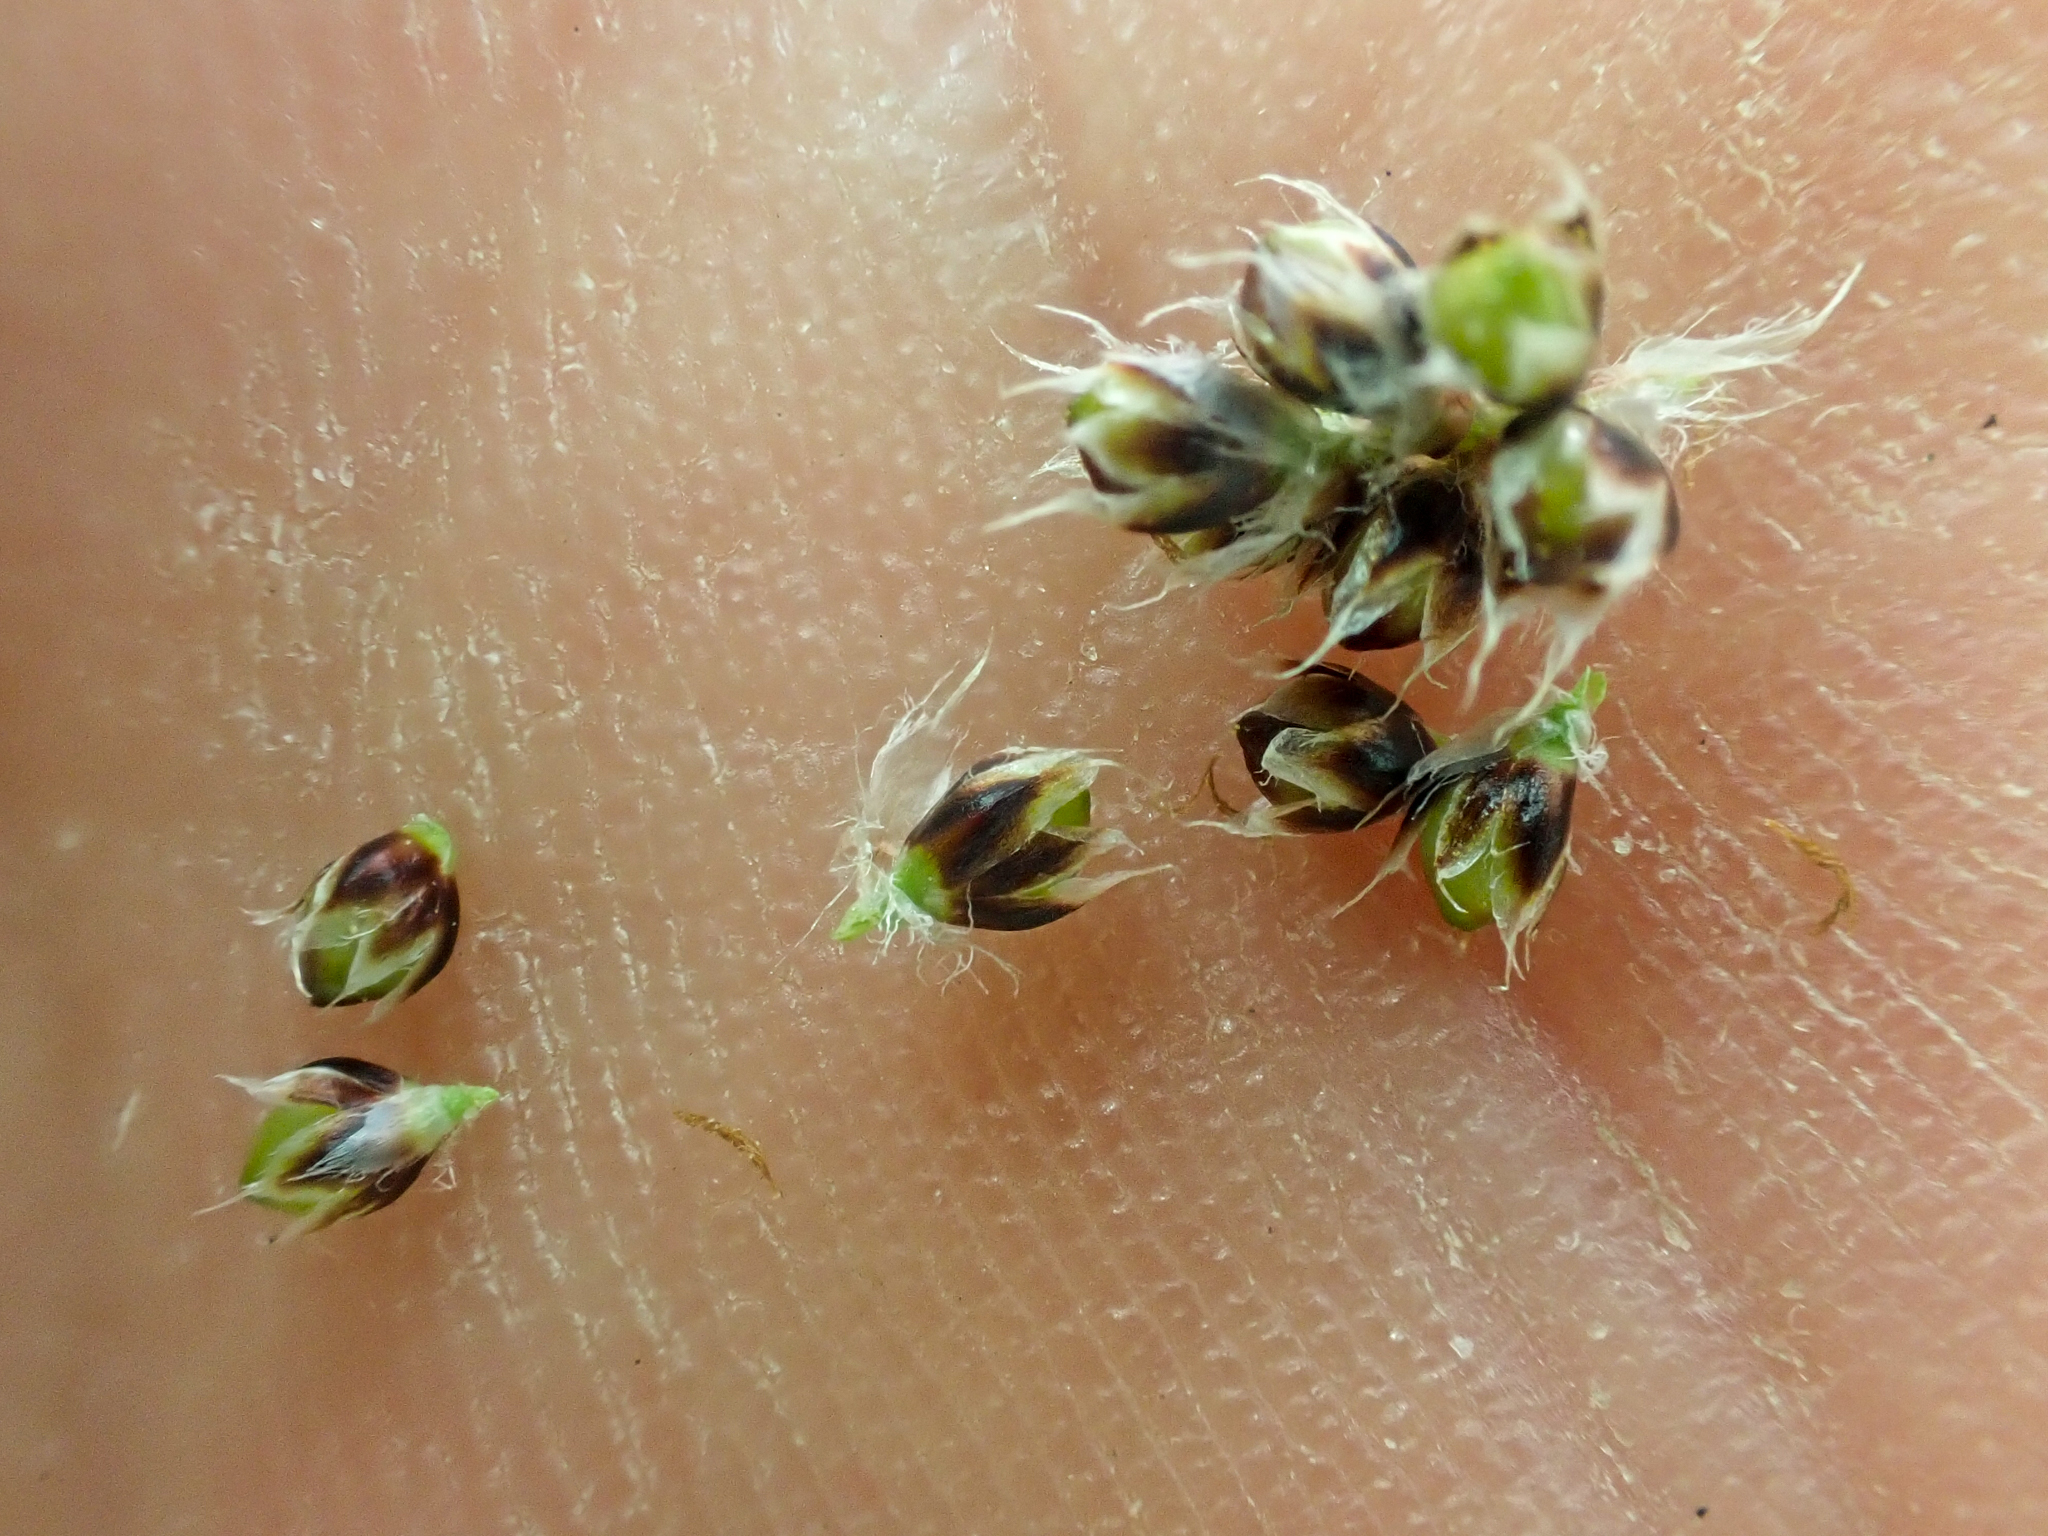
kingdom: Plantae
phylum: Tracheophyta
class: Liliopsida
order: Poales
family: Juncaceae
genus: Luzula
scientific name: Luzula spicata
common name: Spiked wood-rush
